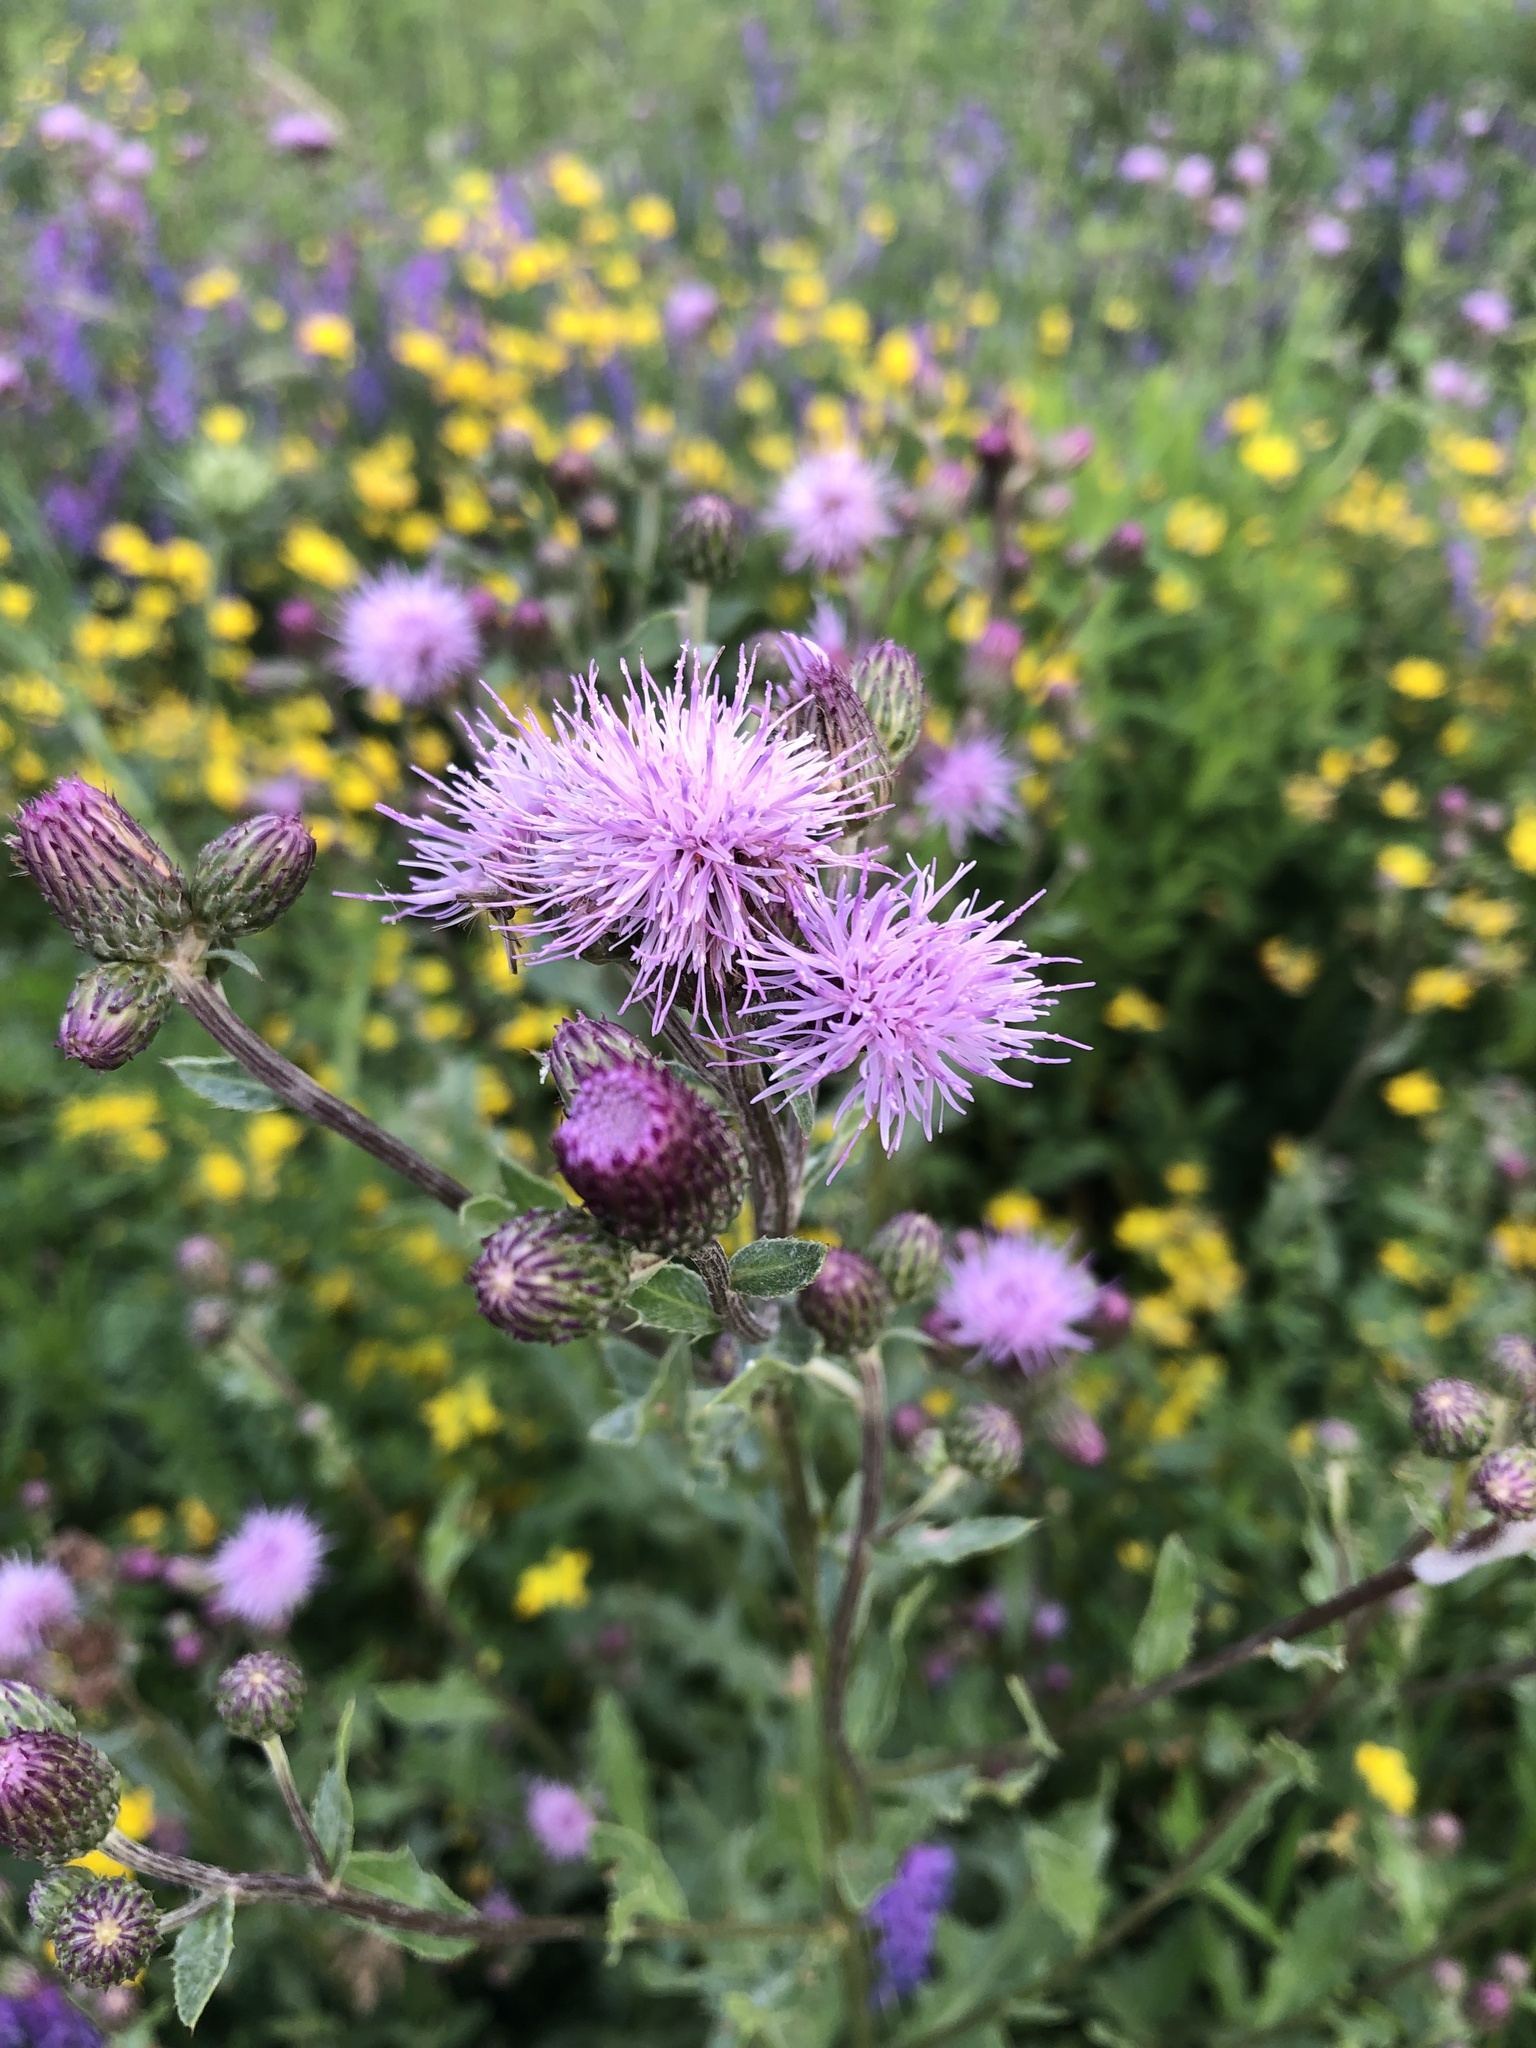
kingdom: Plantae
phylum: Tracheophyta
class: Magnoliopsida
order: Asterales
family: Asteraceae
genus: Cirsium
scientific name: Cirsium arvense
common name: Creeping thistle
